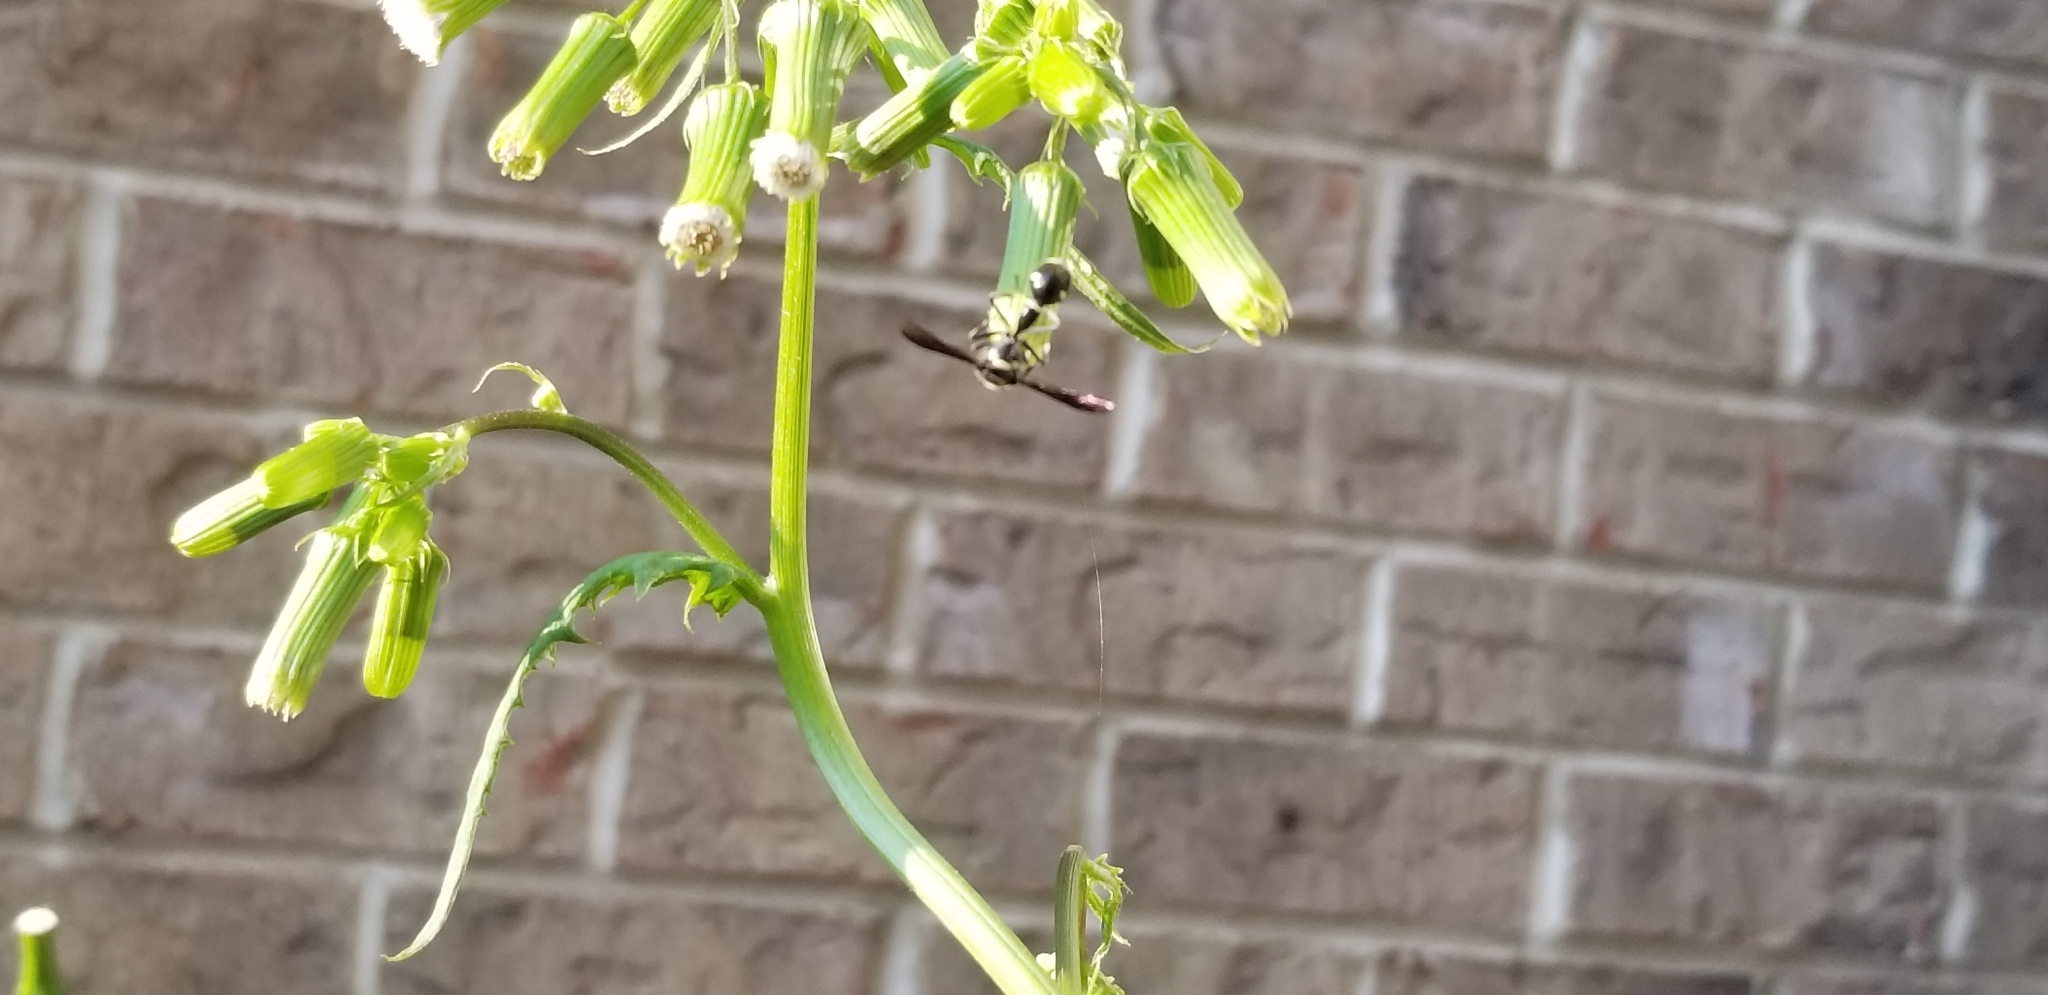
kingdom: Animalia
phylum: Arthropoda
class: Insecta
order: Hymenoptera
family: Vespidae
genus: Eumenes
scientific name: Eumenes fraternus
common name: Fraternal potter wasp
